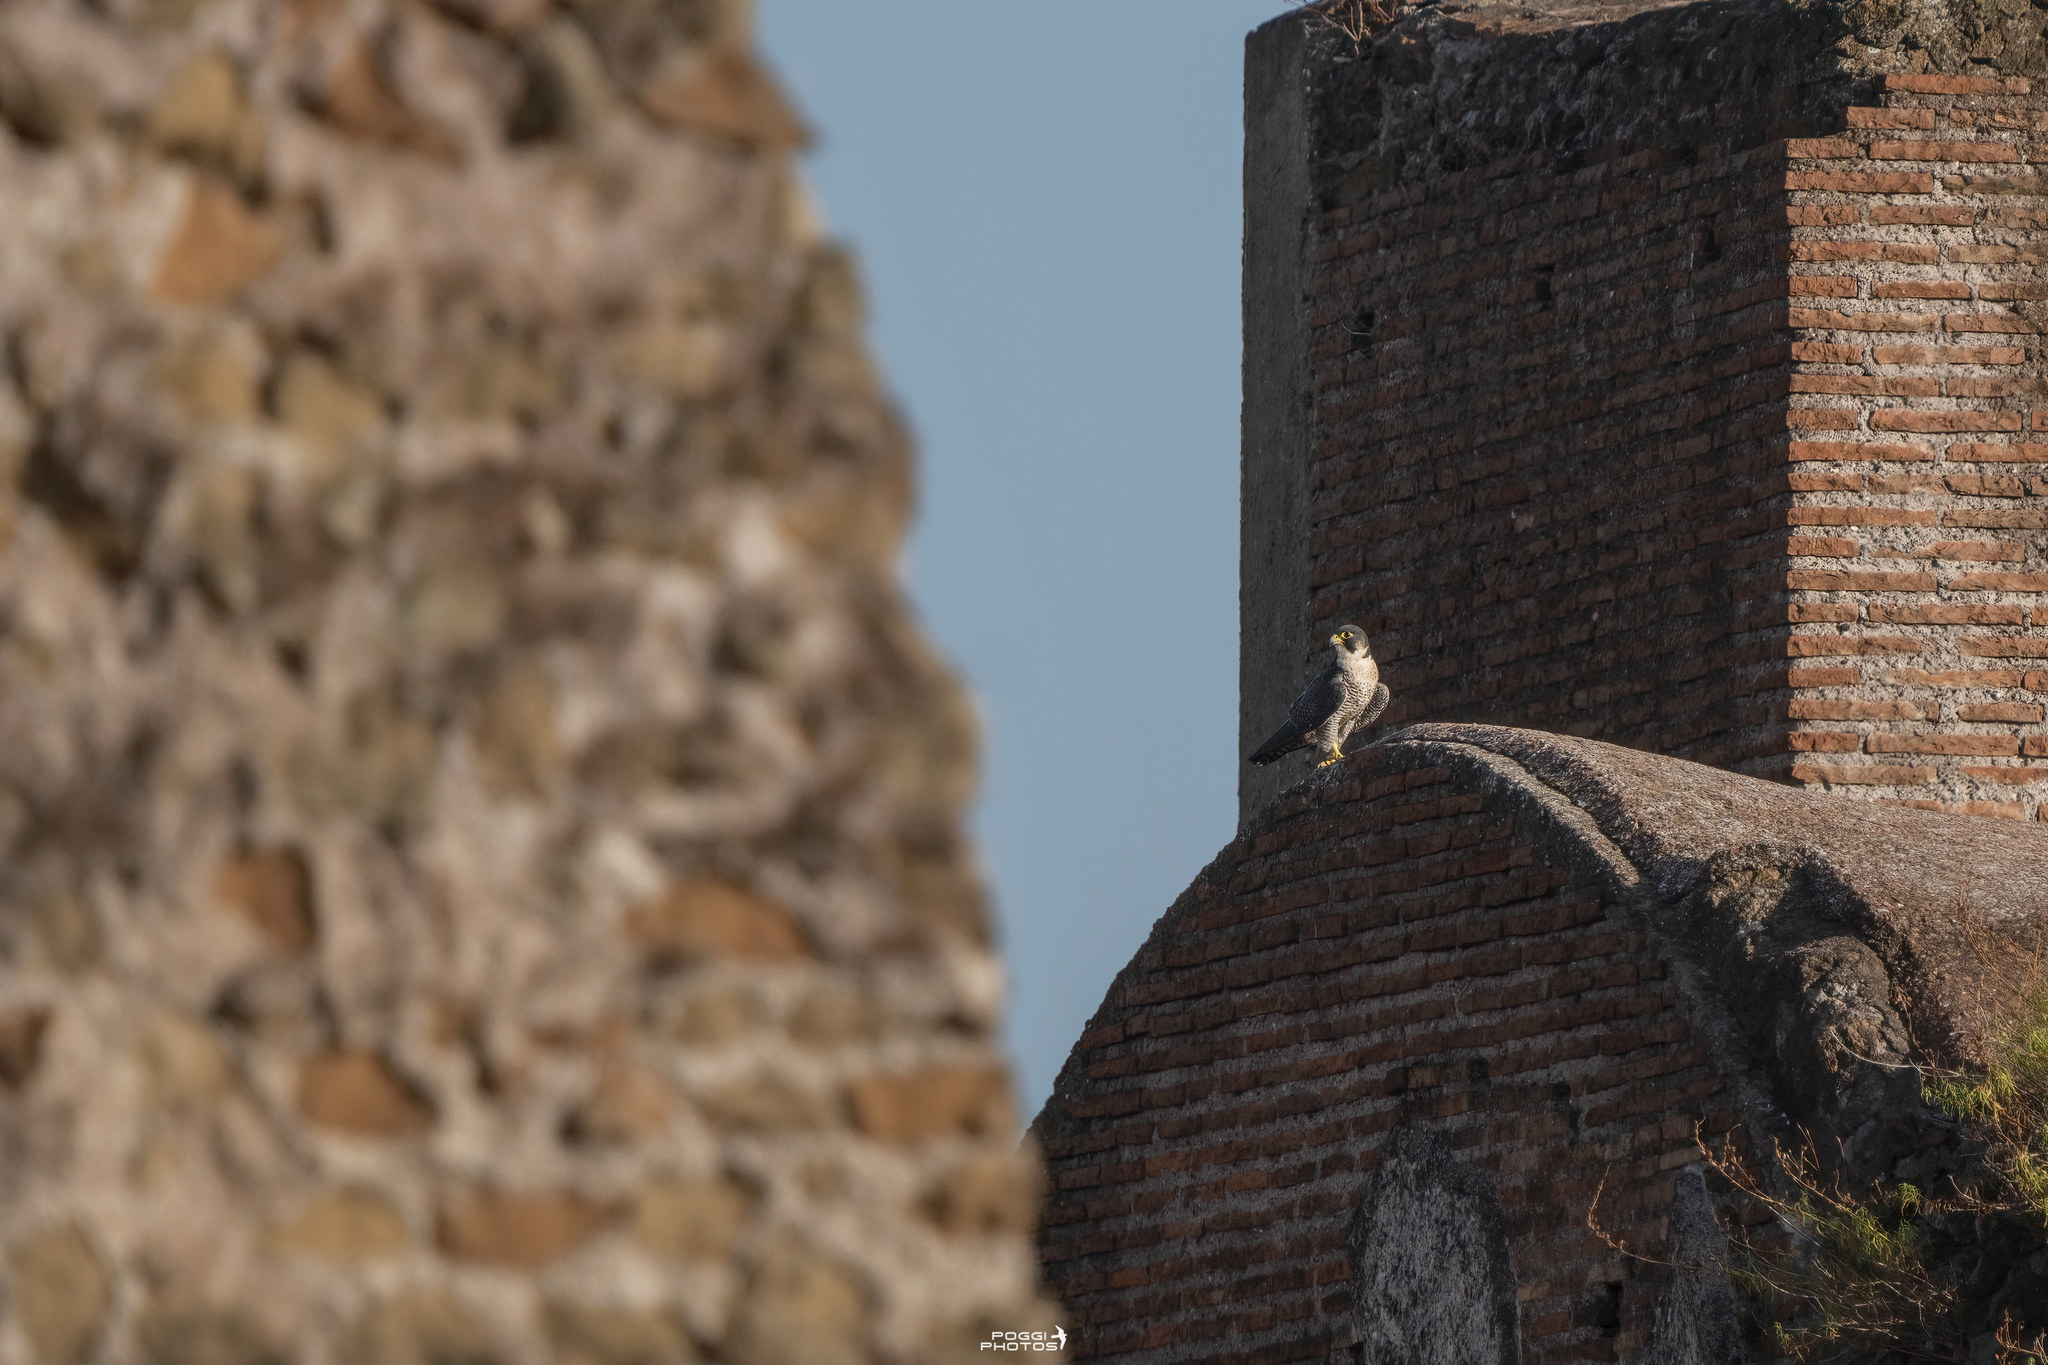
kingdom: Animalia
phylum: Chordata
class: Aves
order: Falconiformes
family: Falconidae
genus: Falco
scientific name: Falco peregrinus
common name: Peregrine falcon
